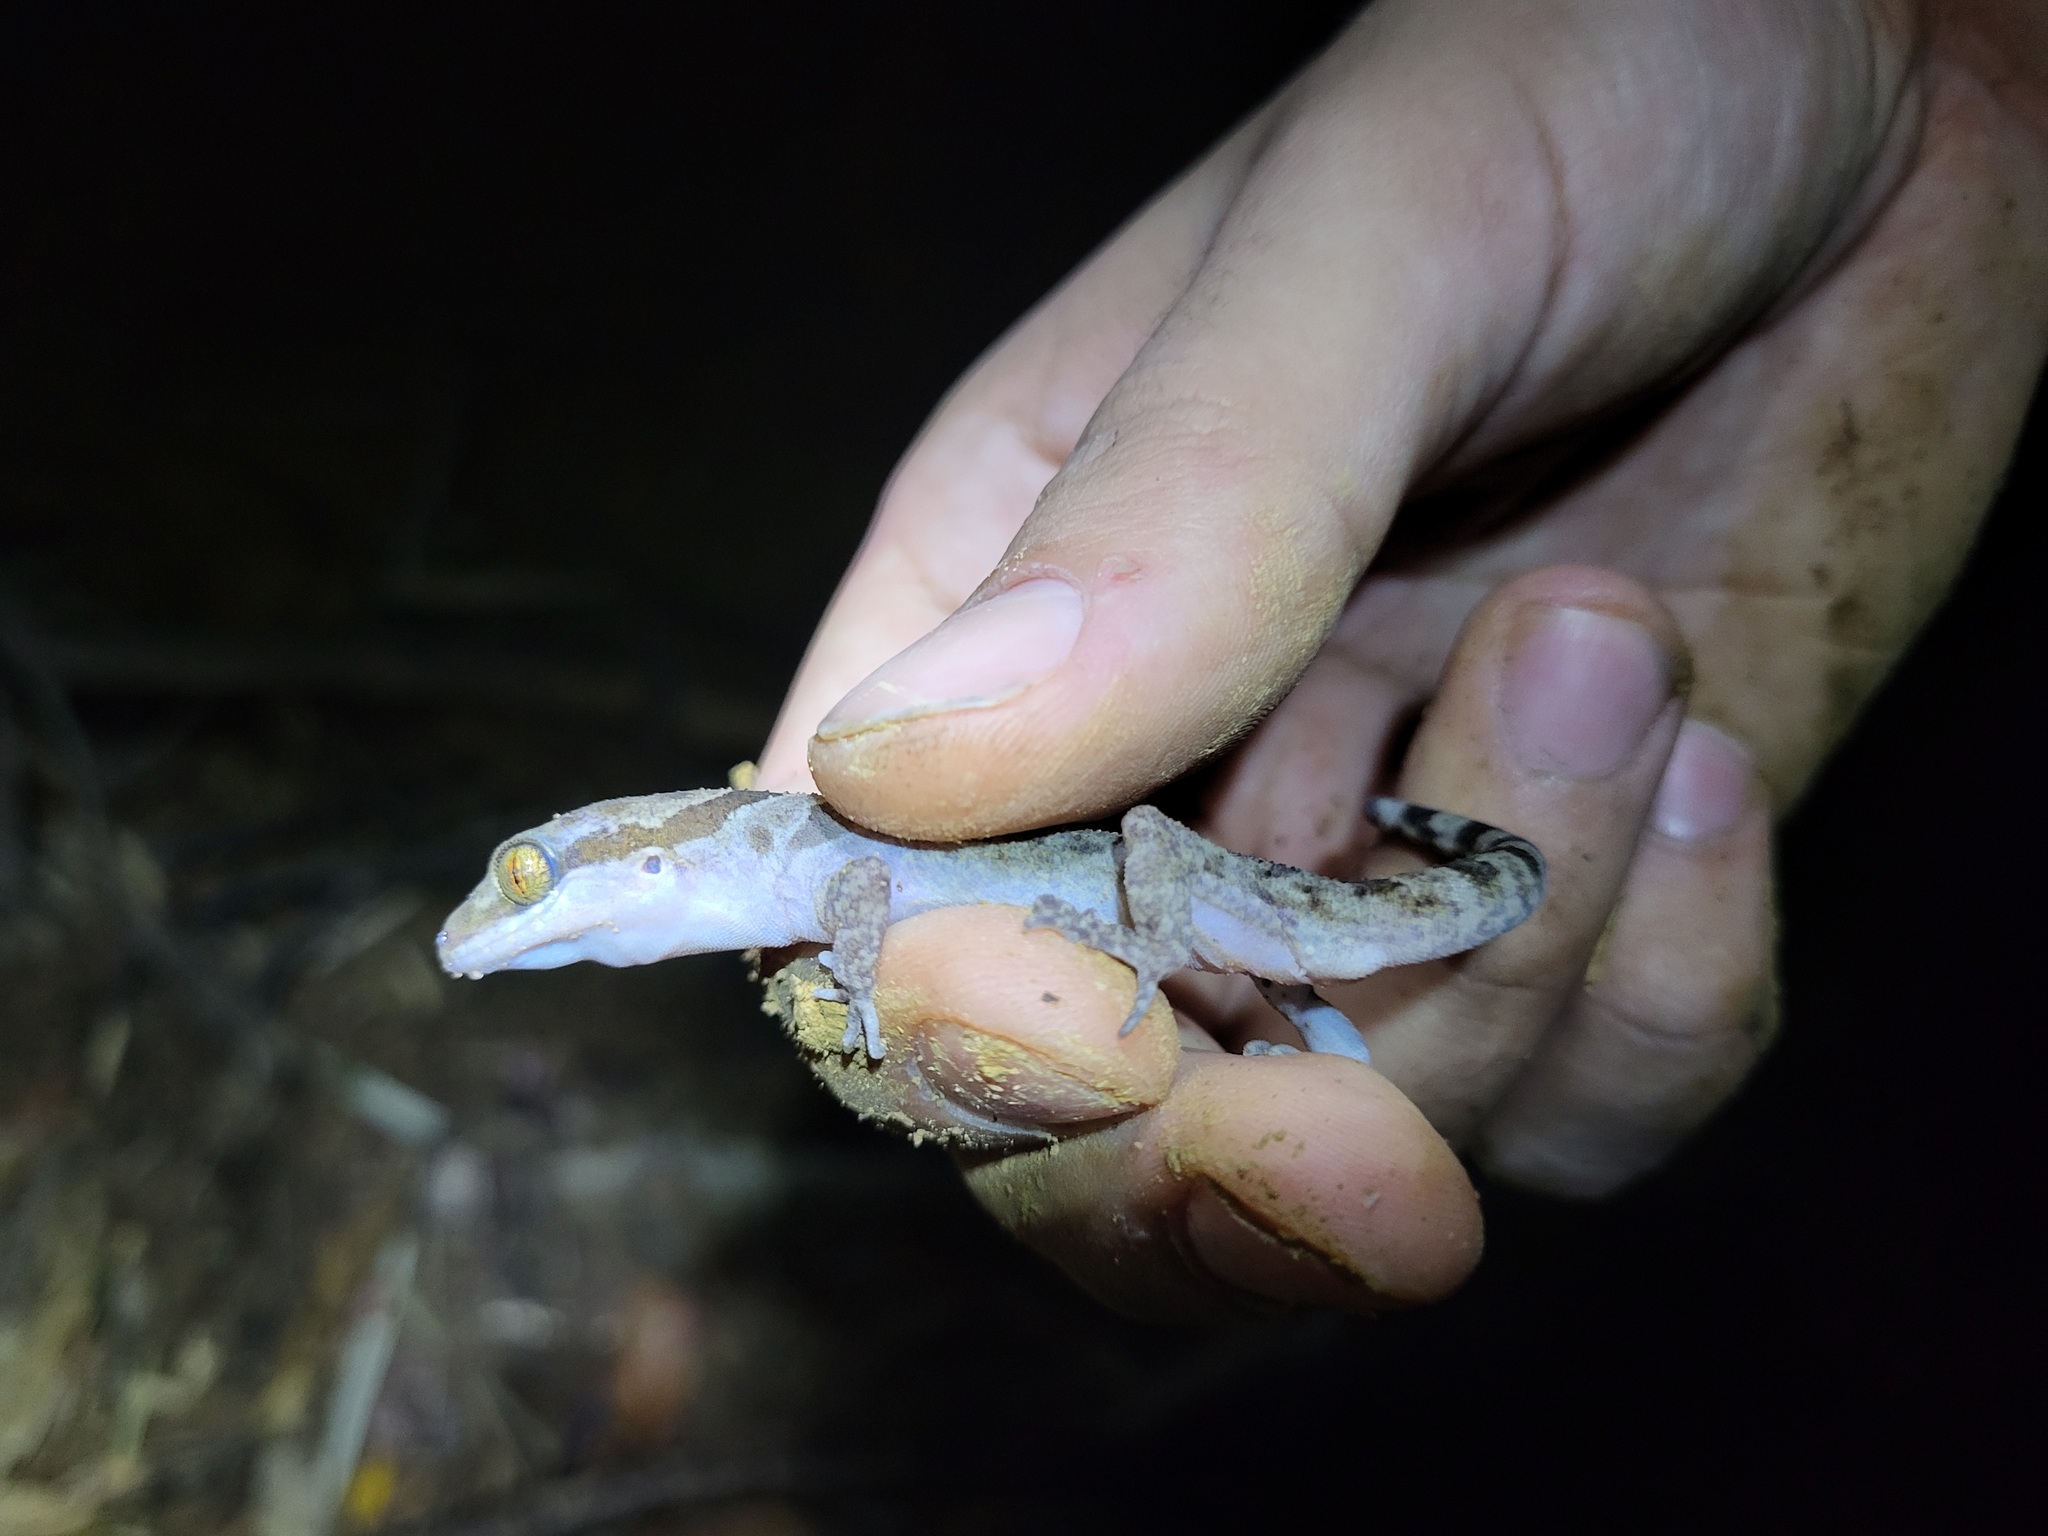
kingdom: Animalia
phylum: Chordata
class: Squamata
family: Gekkonidae
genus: Cyrtodactylus
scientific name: Cyrtodactylus cattienensis
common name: Cat tien bent-toed gecko
